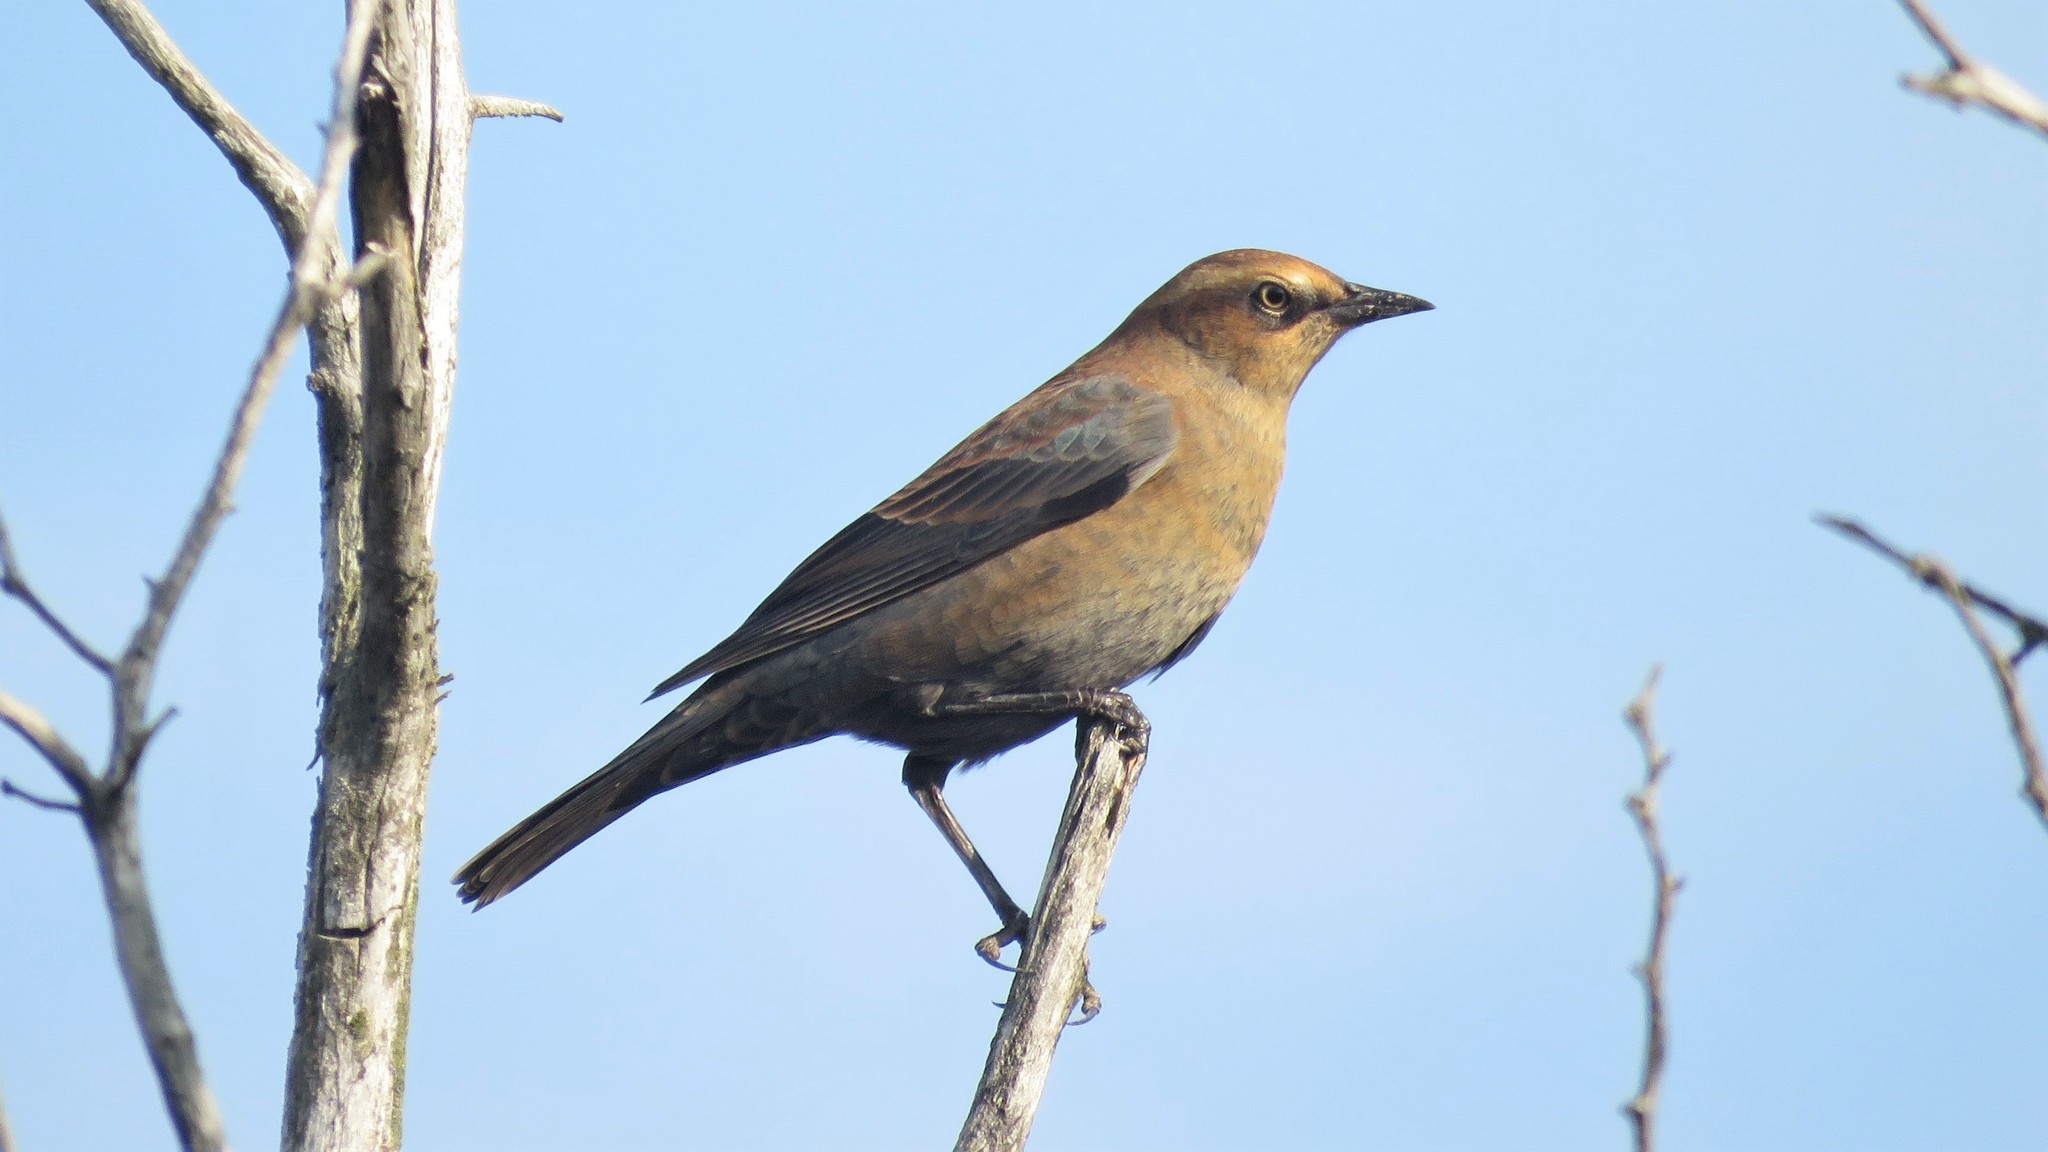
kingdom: Animalia
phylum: Chordata
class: Aves
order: Passeriformes
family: Icteridae
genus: Euphagus
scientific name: Euphagus carolinus
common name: Rusty blackbird
